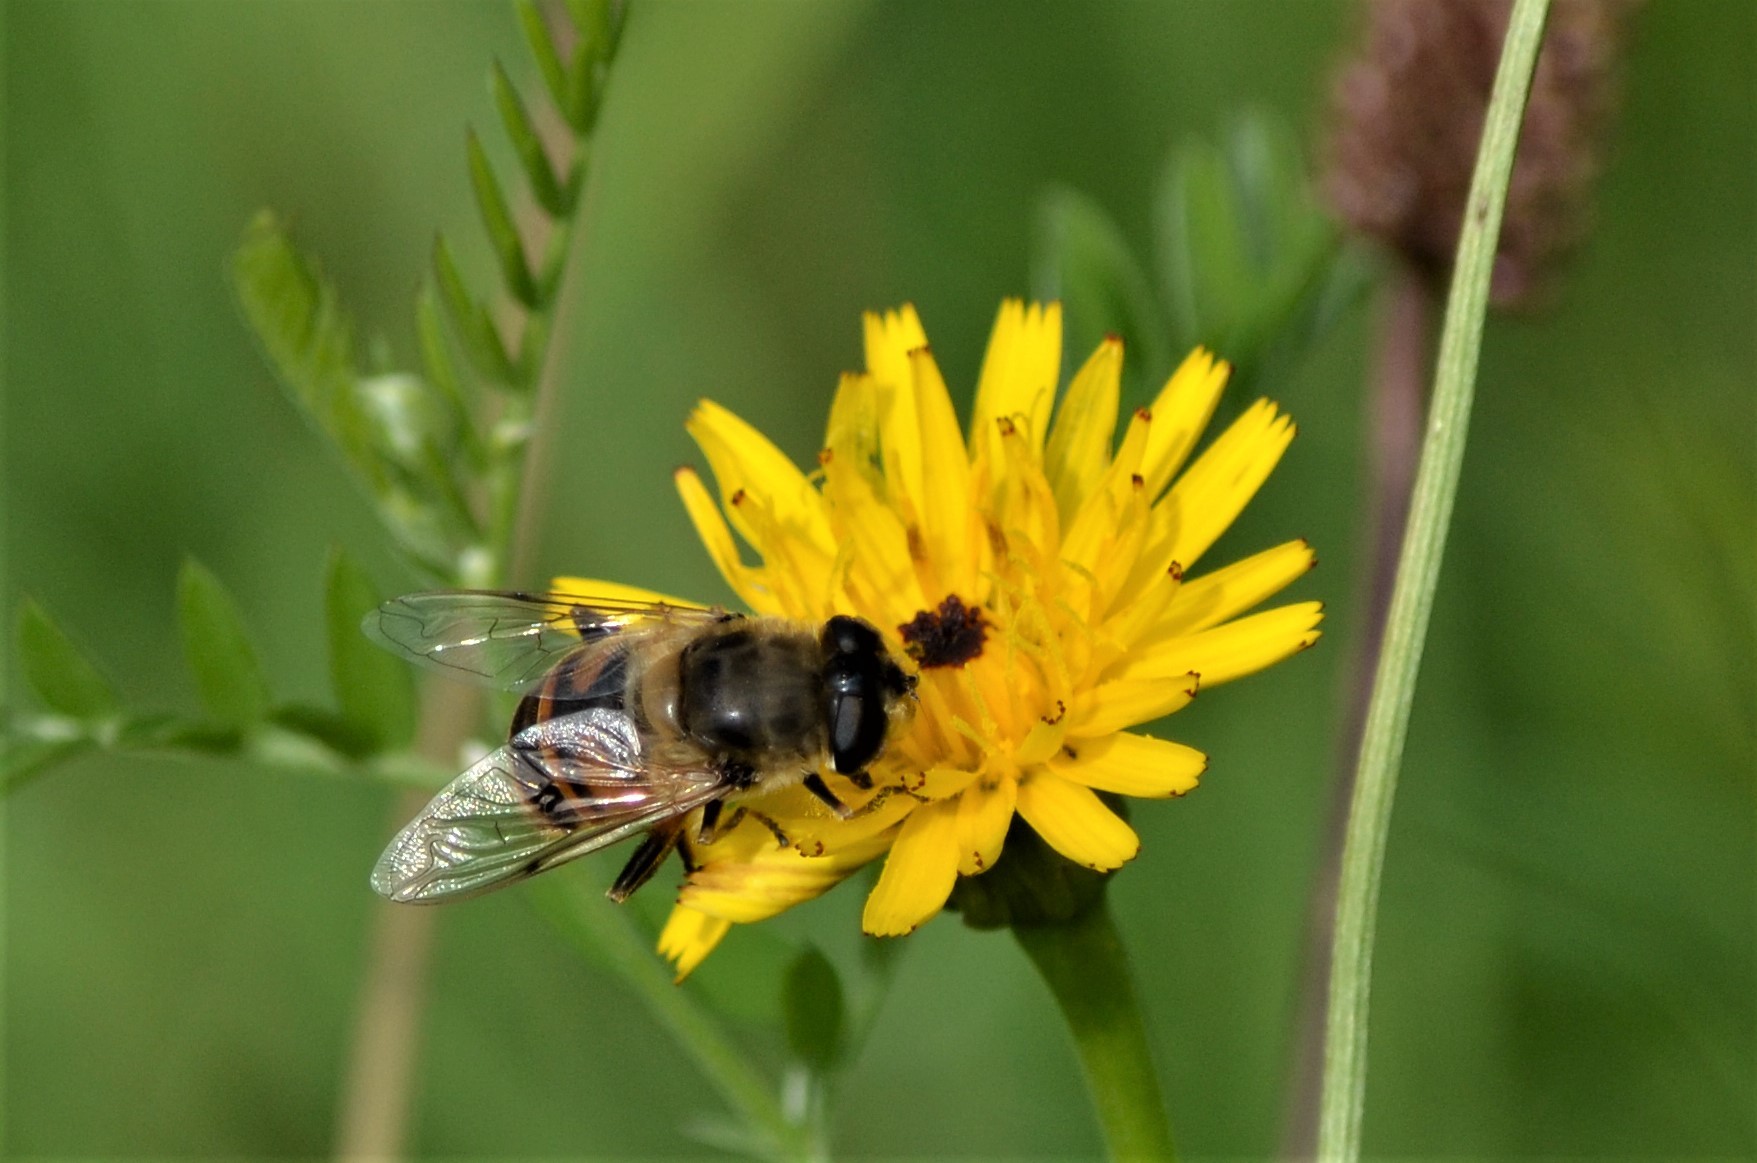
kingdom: Animalia
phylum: Arthropoda
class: Insecta
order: Diptera
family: Syrphidae
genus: Eristalis
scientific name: Eristalis tenax
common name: Drone fly
